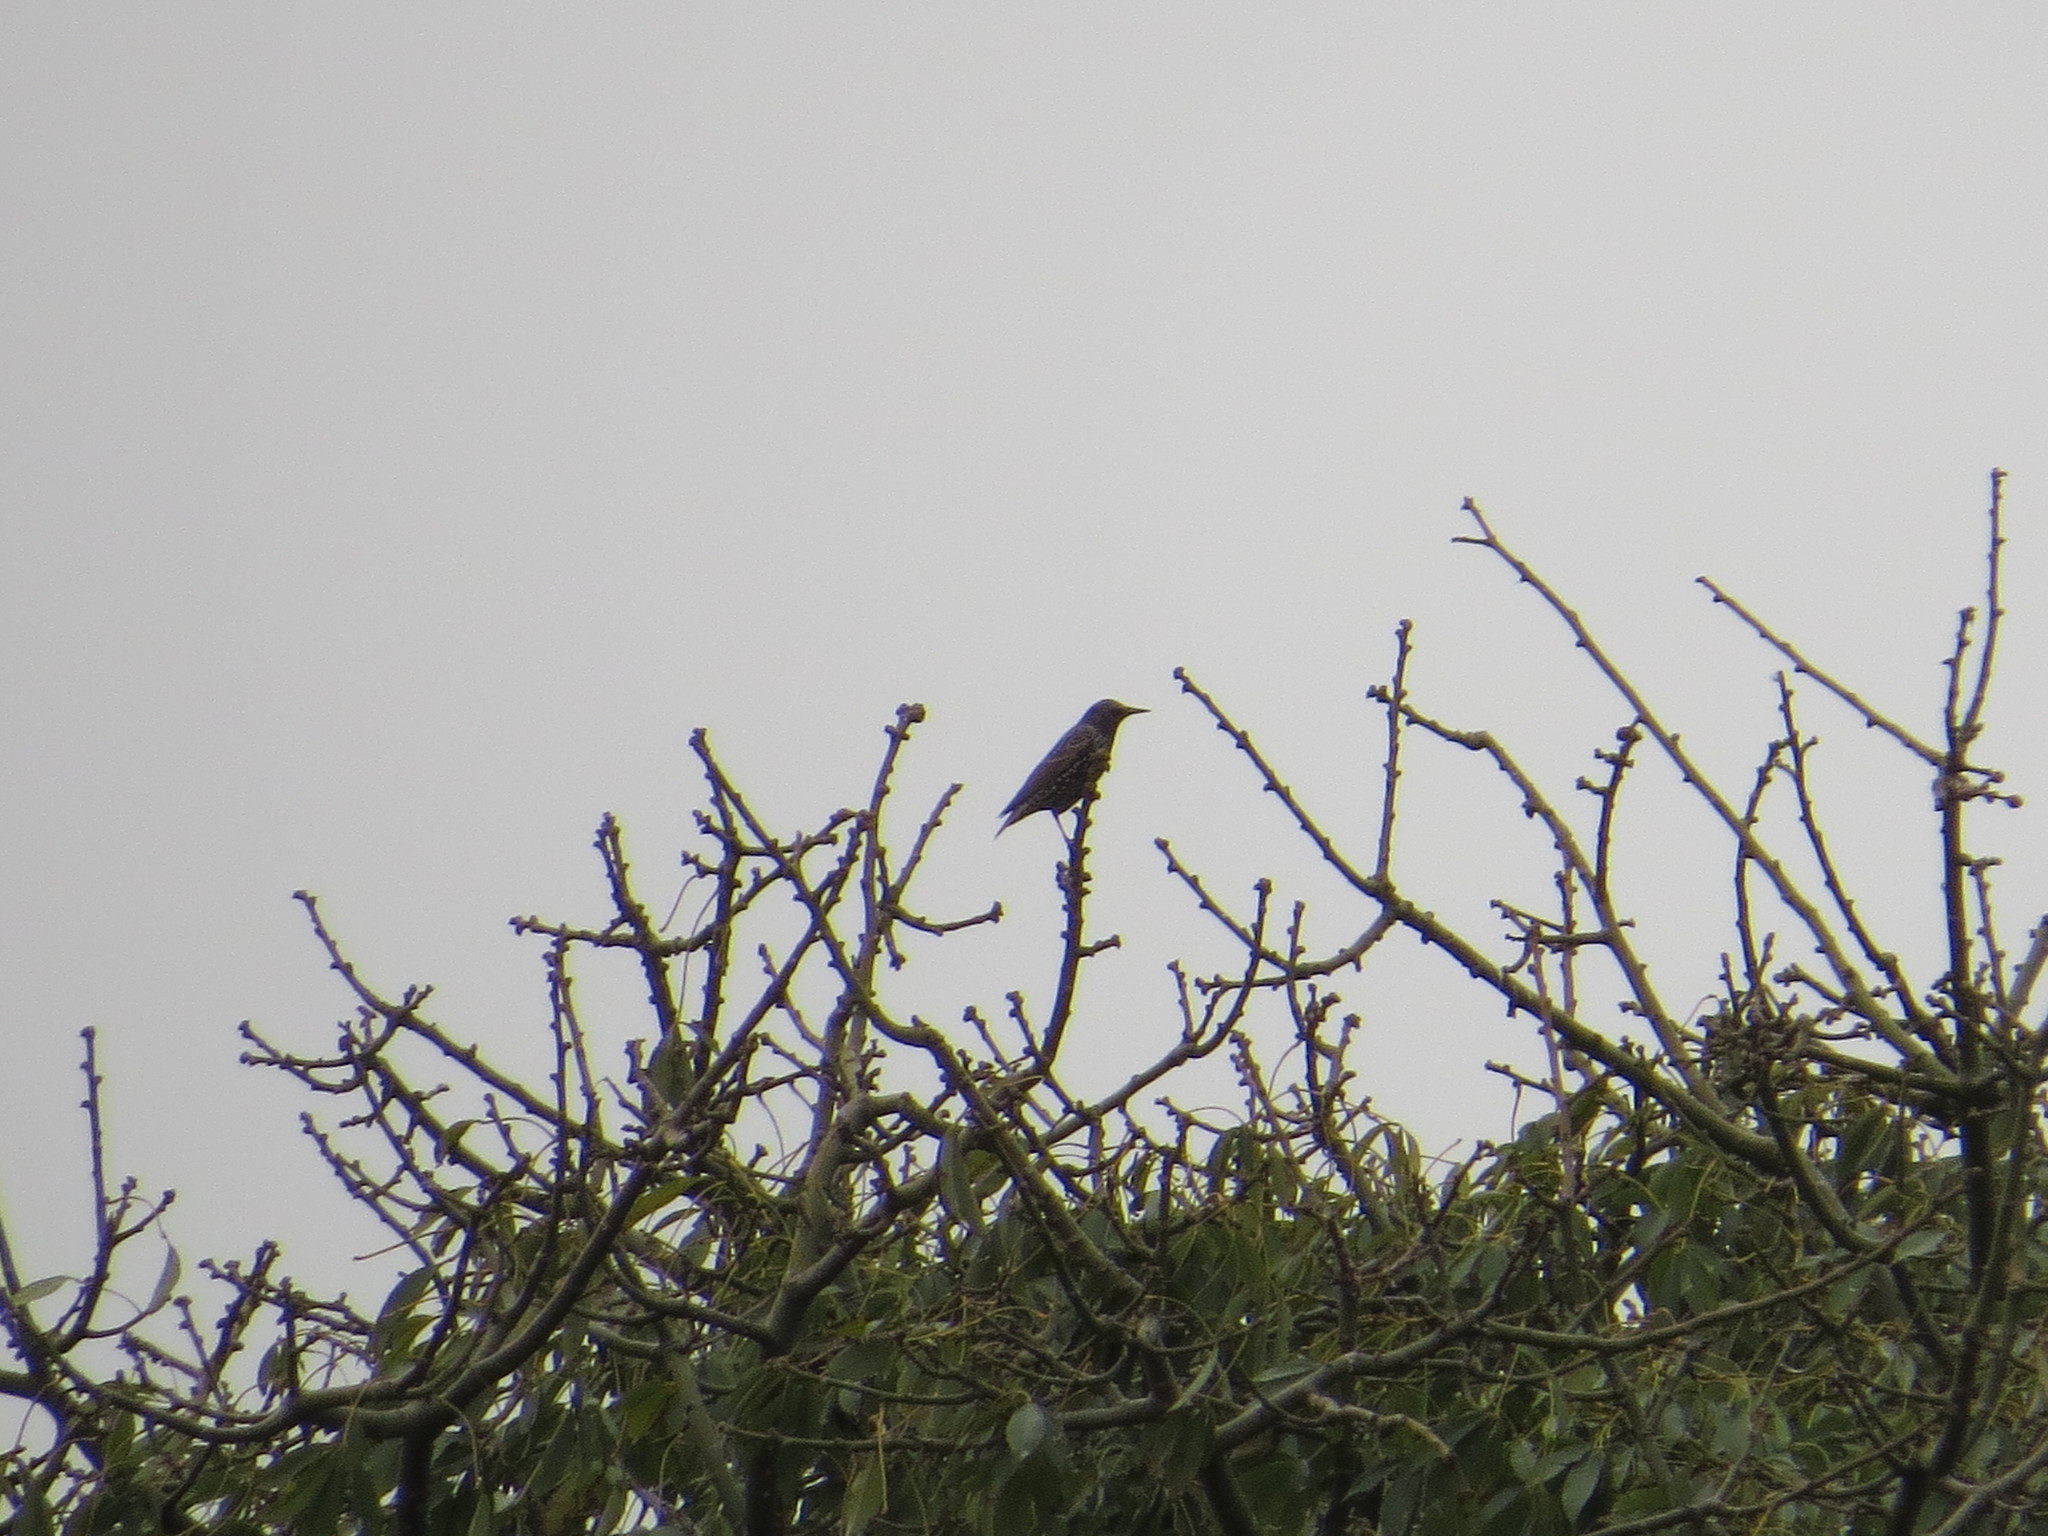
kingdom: Animalia
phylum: Chordata
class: Aves
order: Passeriformes
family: Sturnidae
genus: Sturnus
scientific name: Sturnus vulgaris
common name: Common starling
